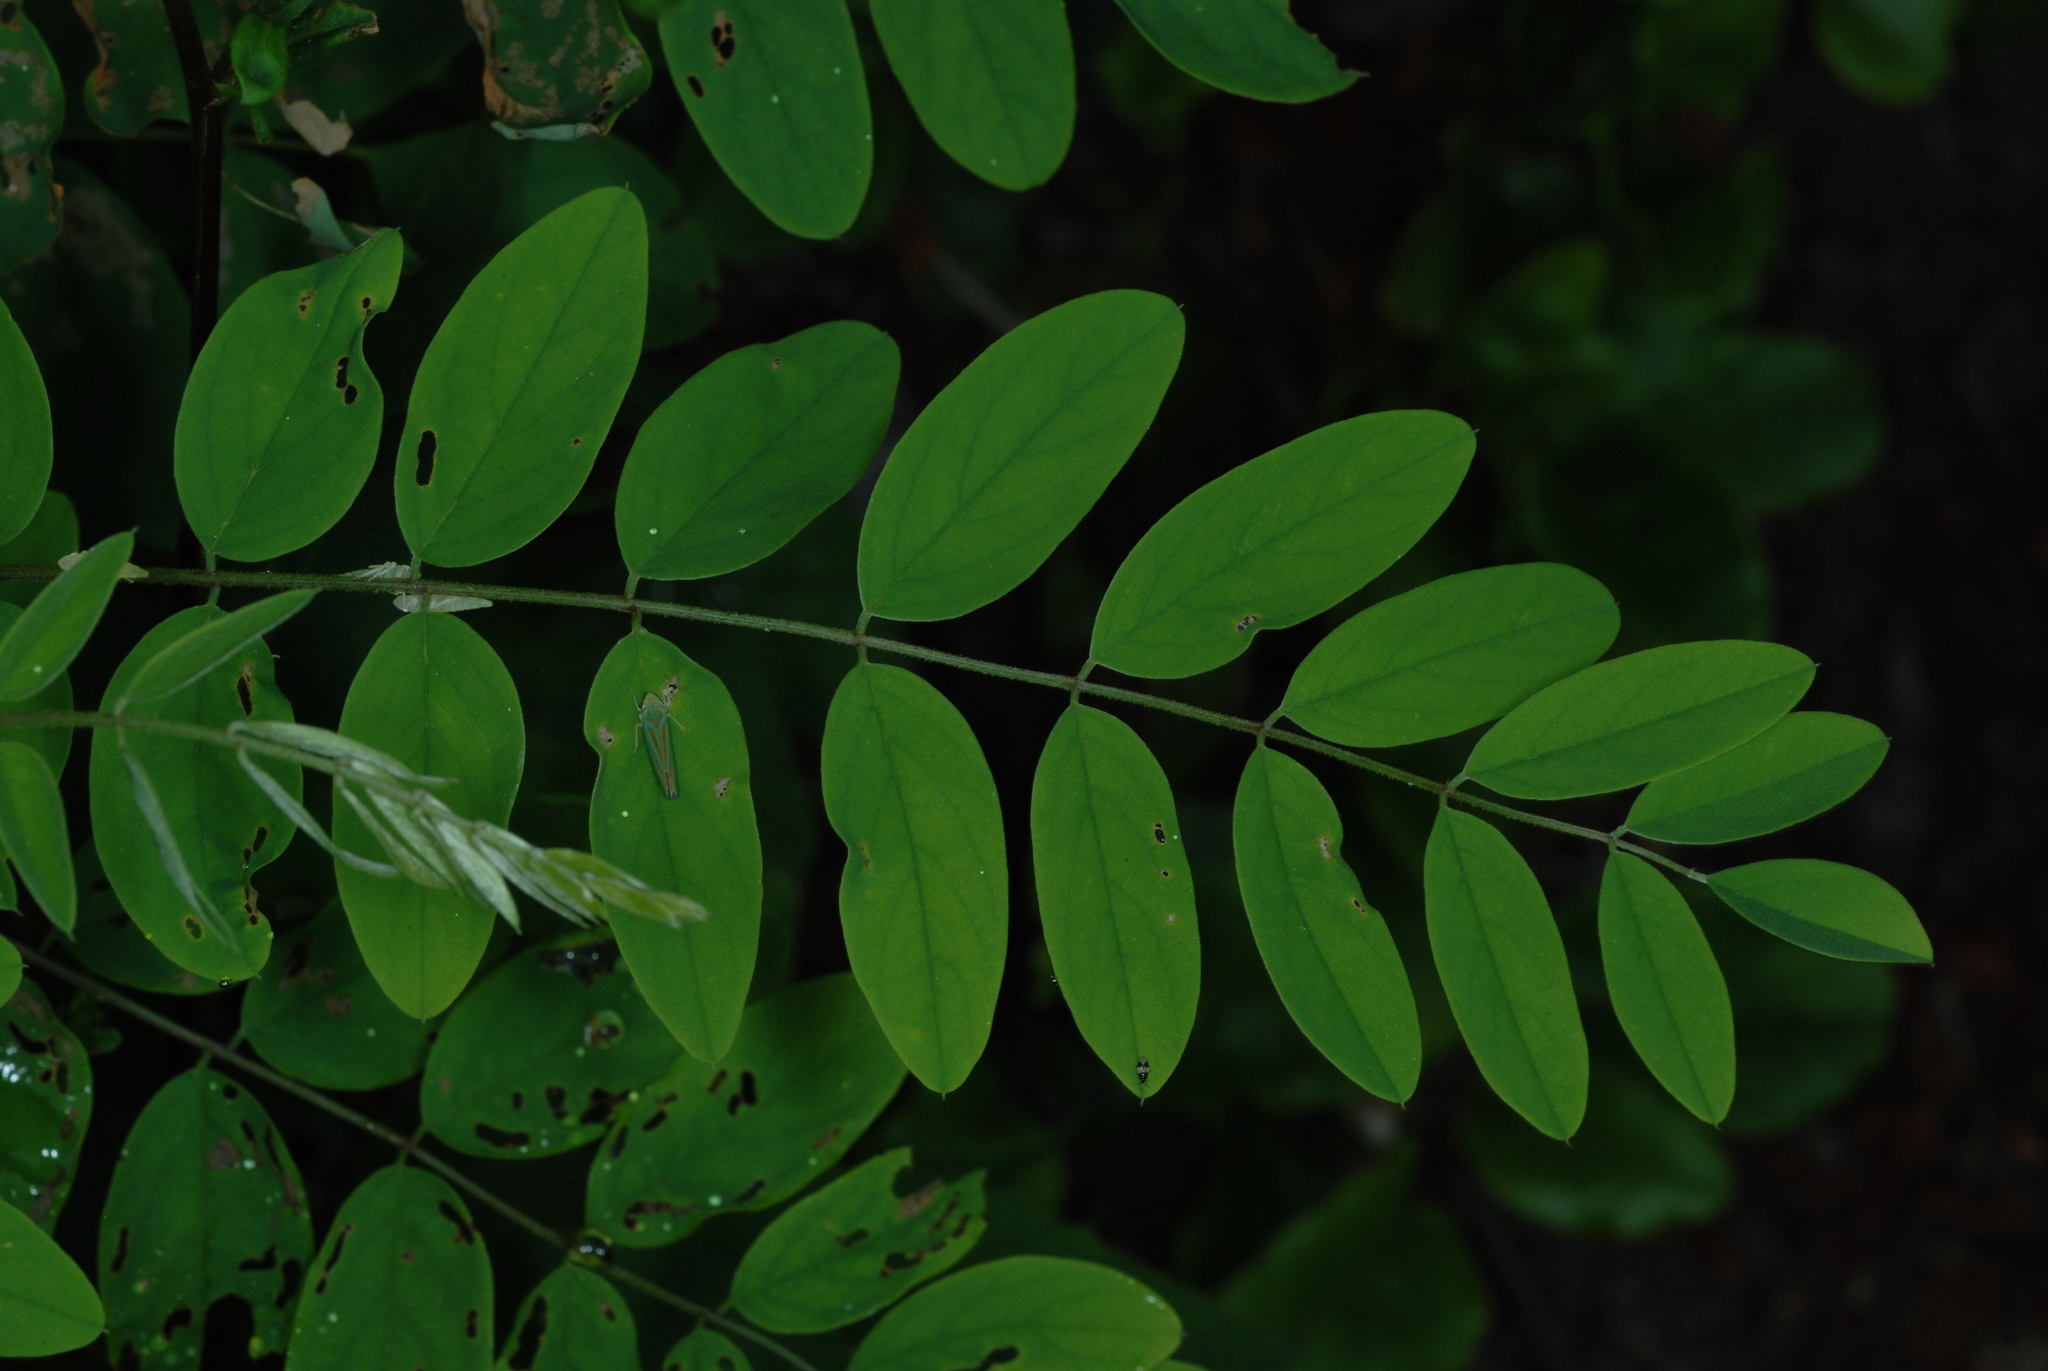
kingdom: Plantae
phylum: Tracheophyta
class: Magnoliopsida
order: Fabales
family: Fabaceae
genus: Robinia
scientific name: Robinia viscosa
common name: Clammy locust
